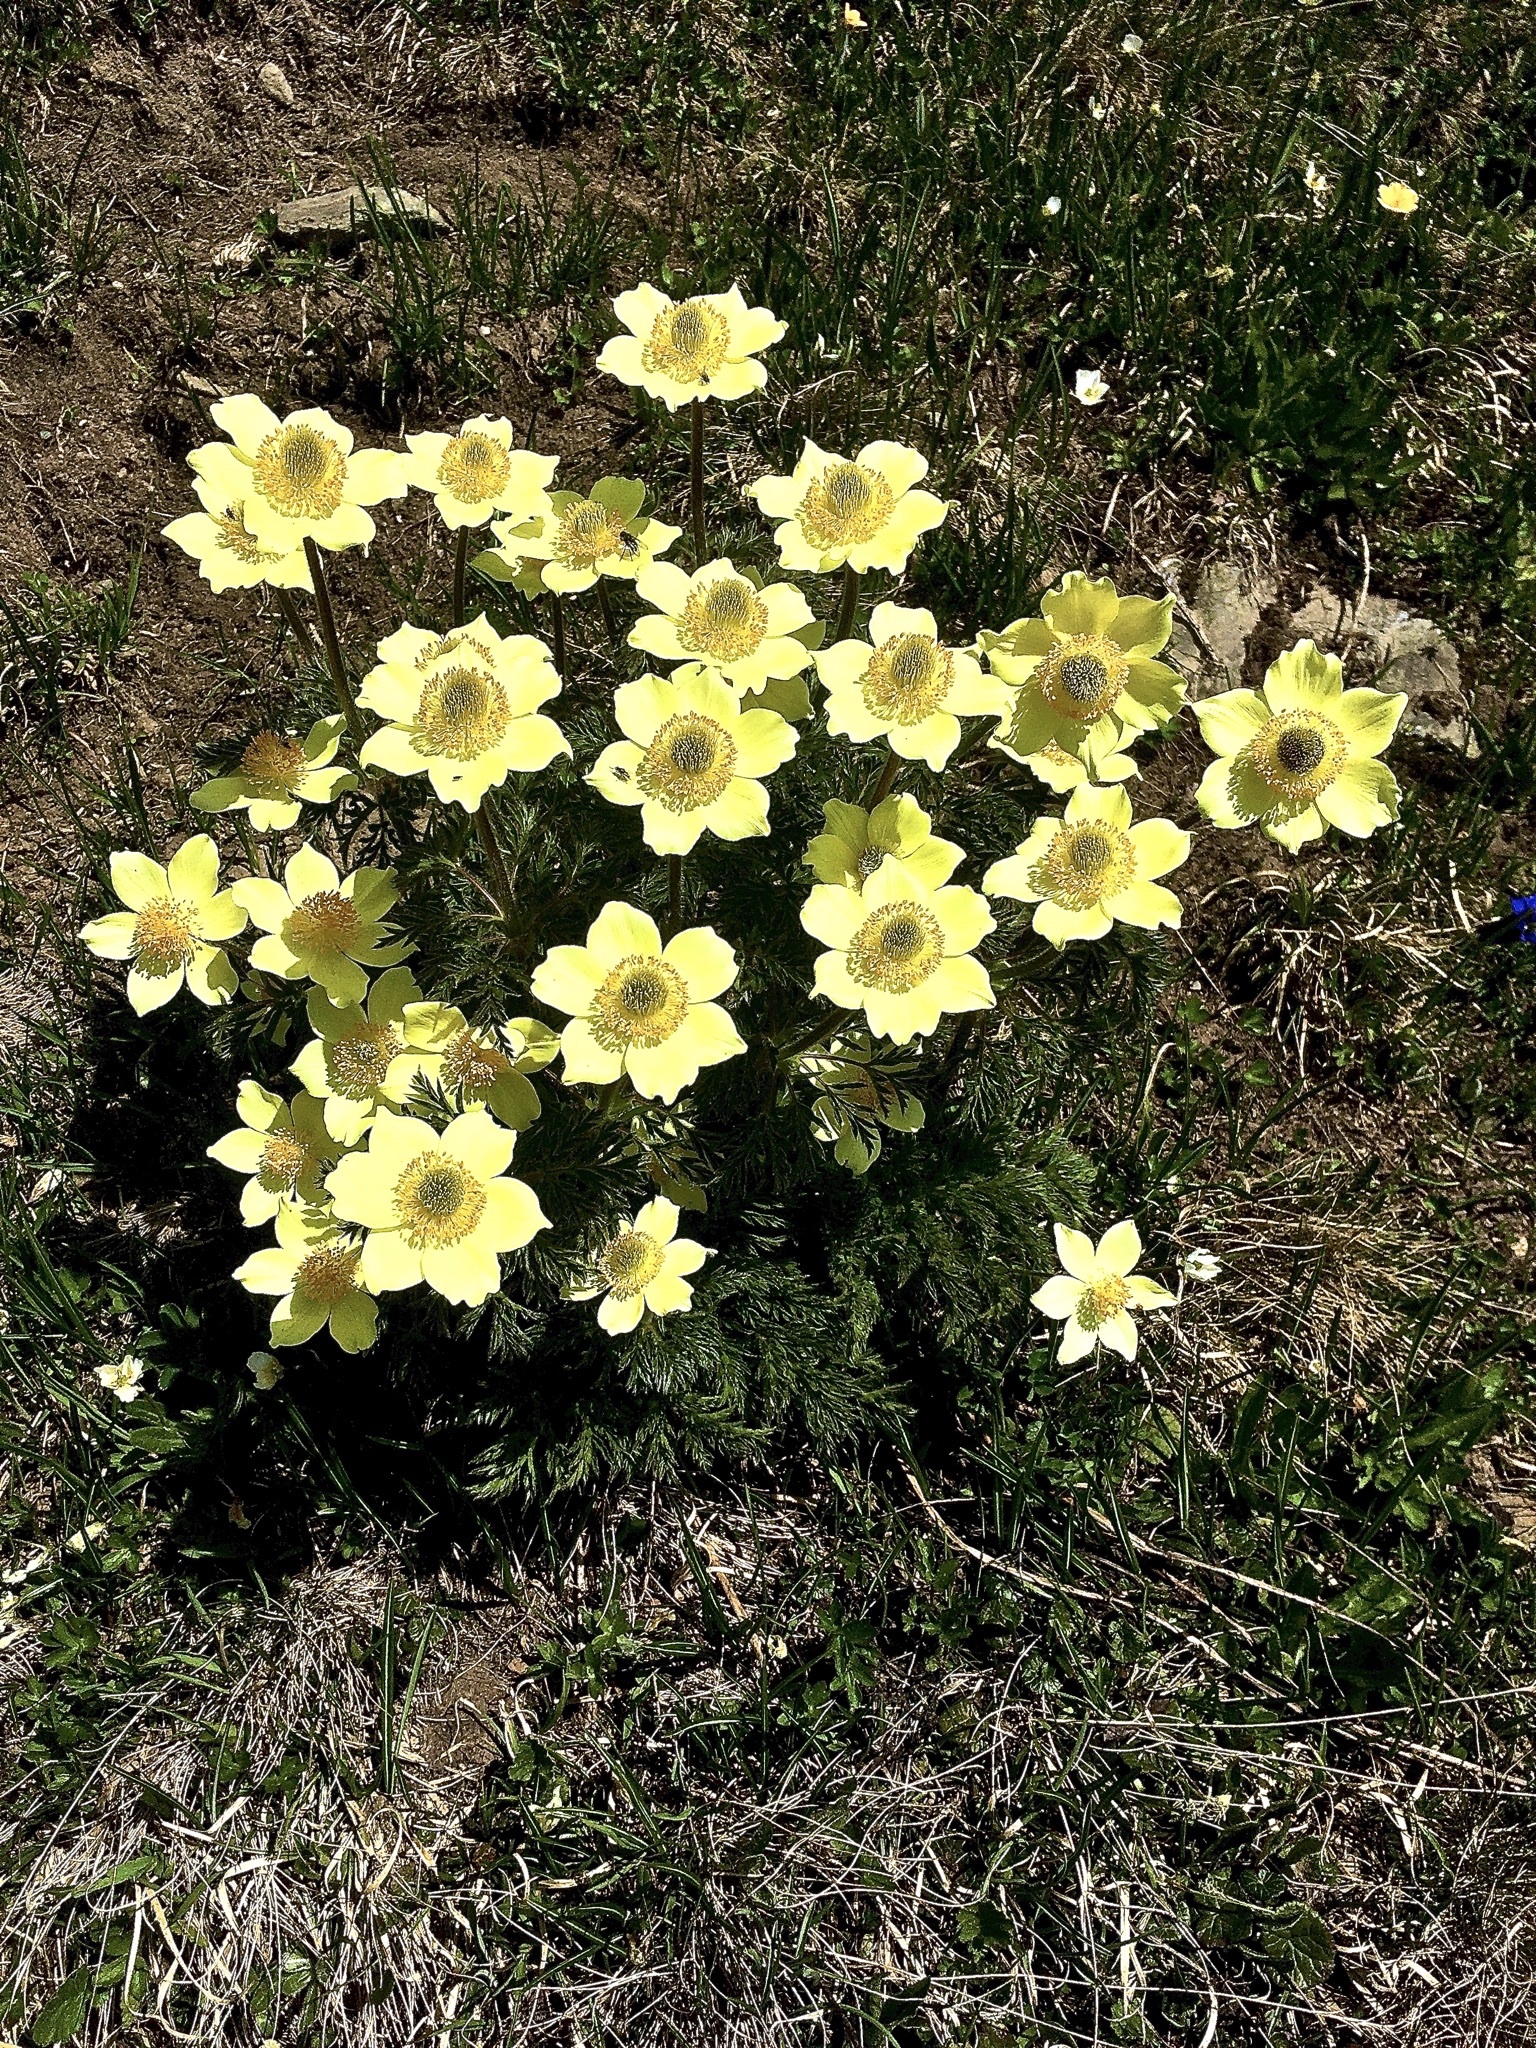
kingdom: Plantae
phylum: Tracheophyta
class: Magnoliopsida
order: Ranunculales
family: Ranunculaceae
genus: Pulsatilla
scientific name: Pulsatilla alpina
